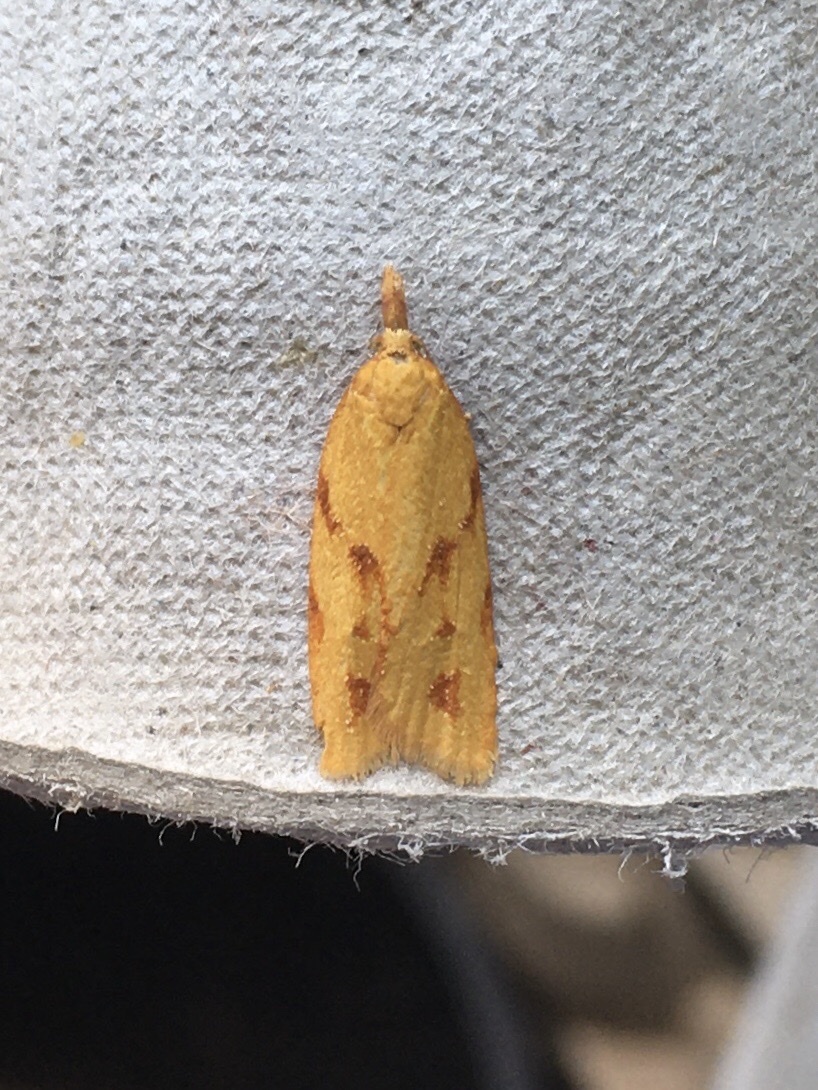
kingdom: Animalia
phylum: Arthropoda
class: Insecta
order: Lepidoptera
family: Tortricidae
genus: Sparganothis
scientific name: Sparganothis unifasciana
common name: One-lined sparganothis moth
